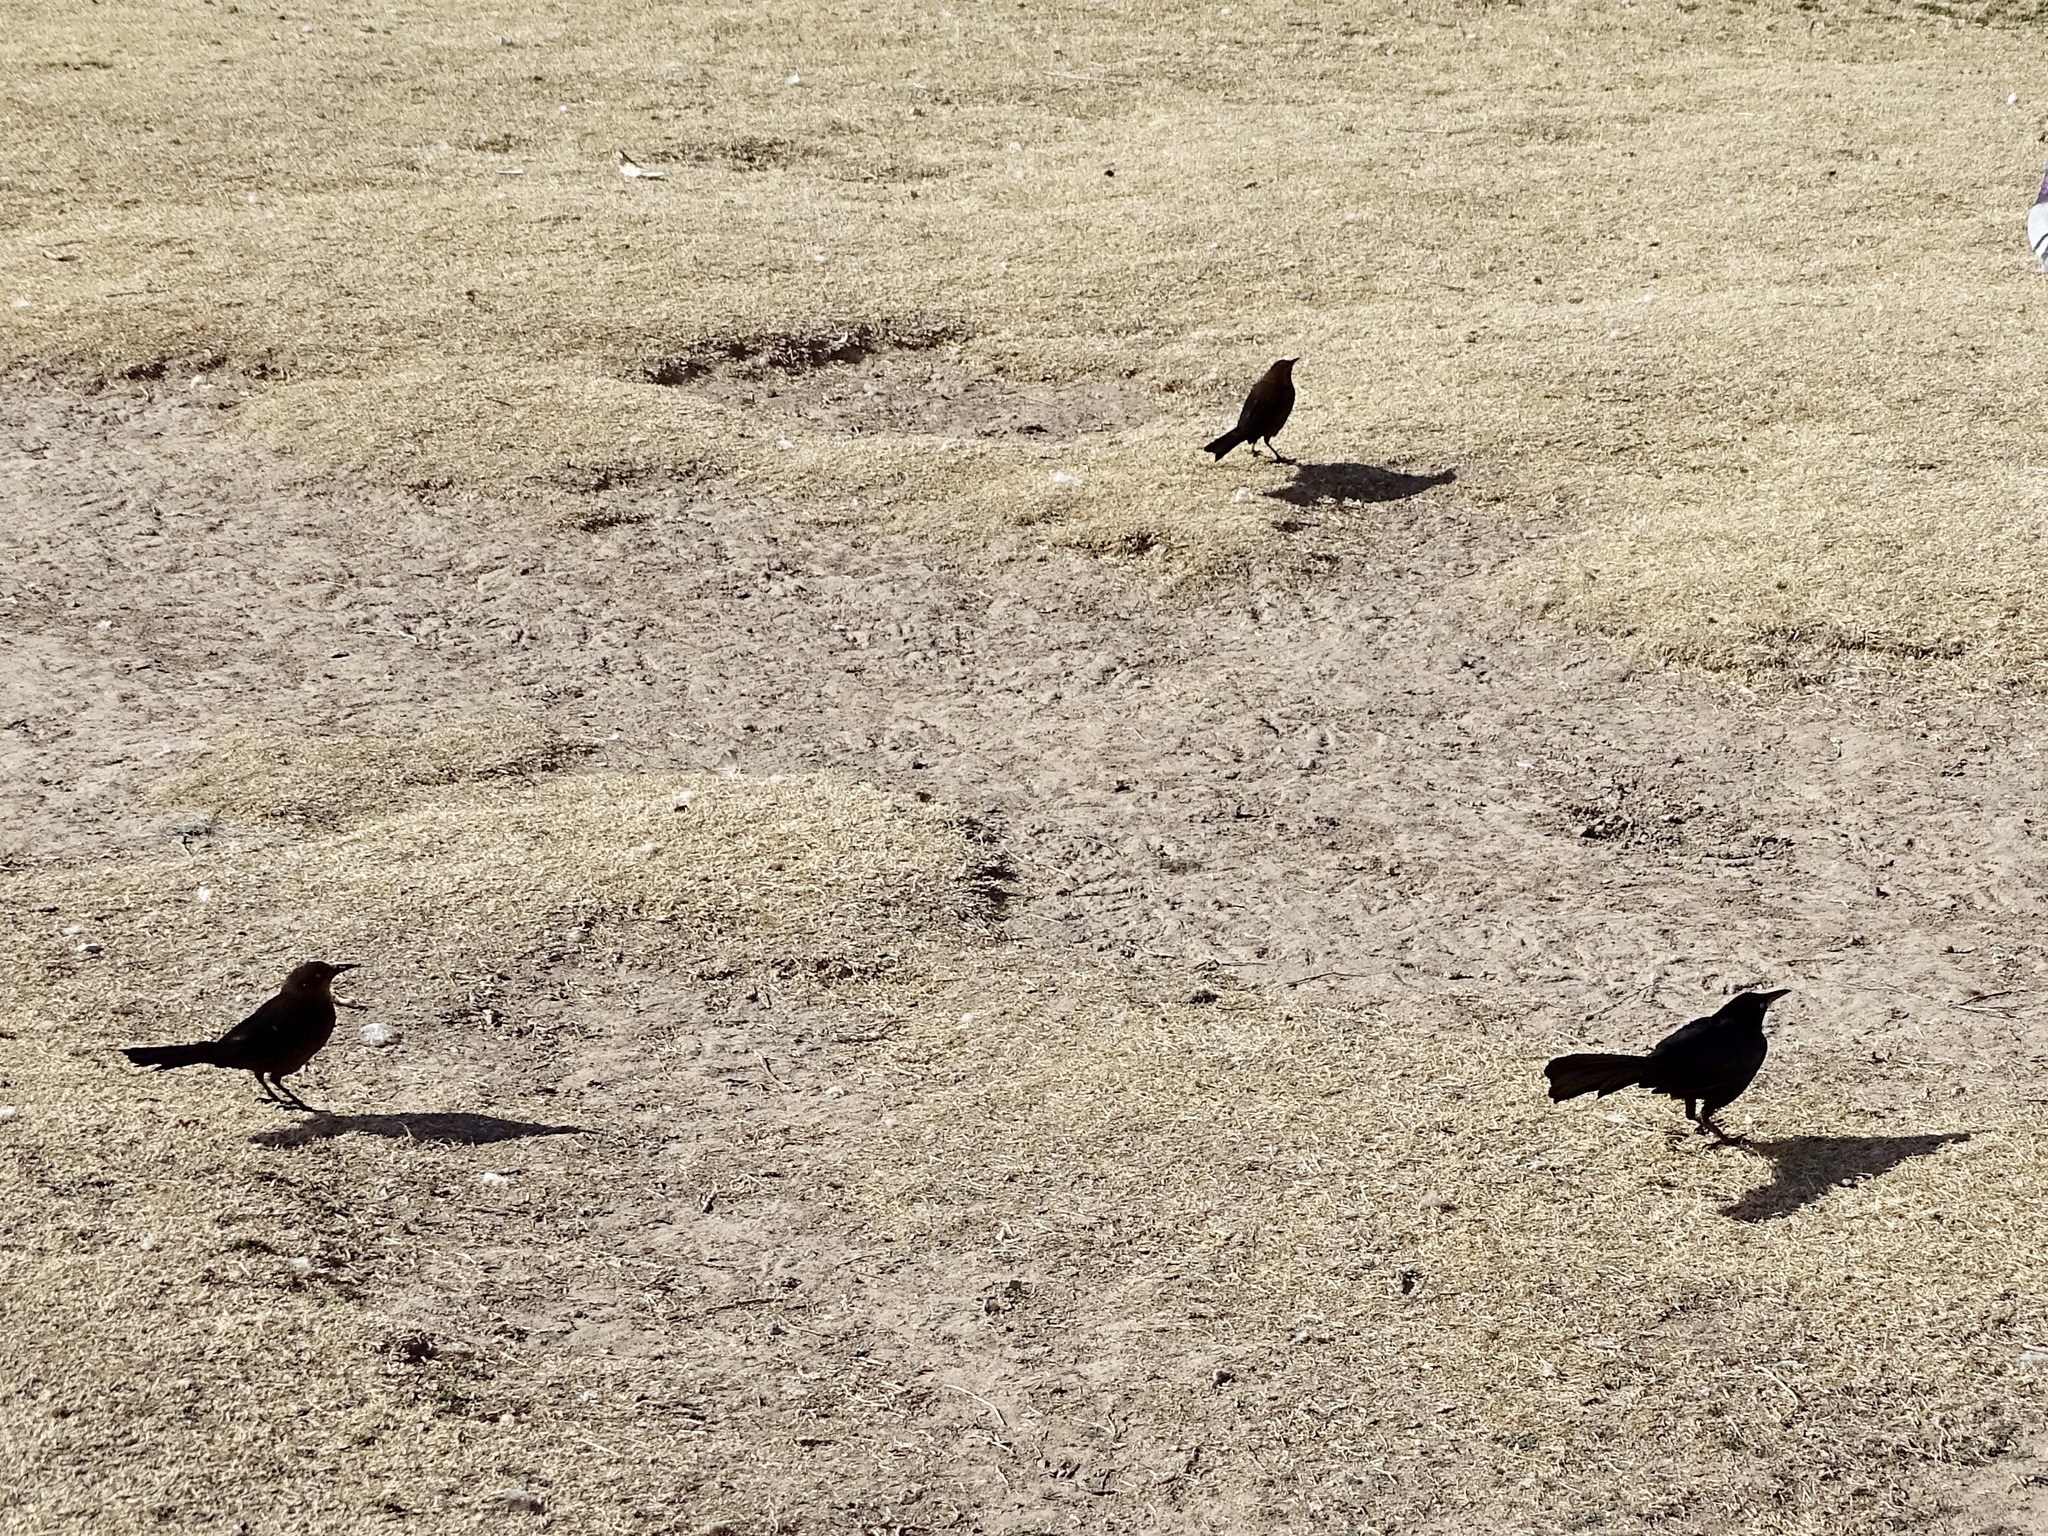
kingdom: Animalia
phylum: Chordata
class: Aves
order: Passeriformes
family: Icteridae
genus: Quiscalus
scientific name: Quiscalus mexicanus
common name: Great-tailed grackle
